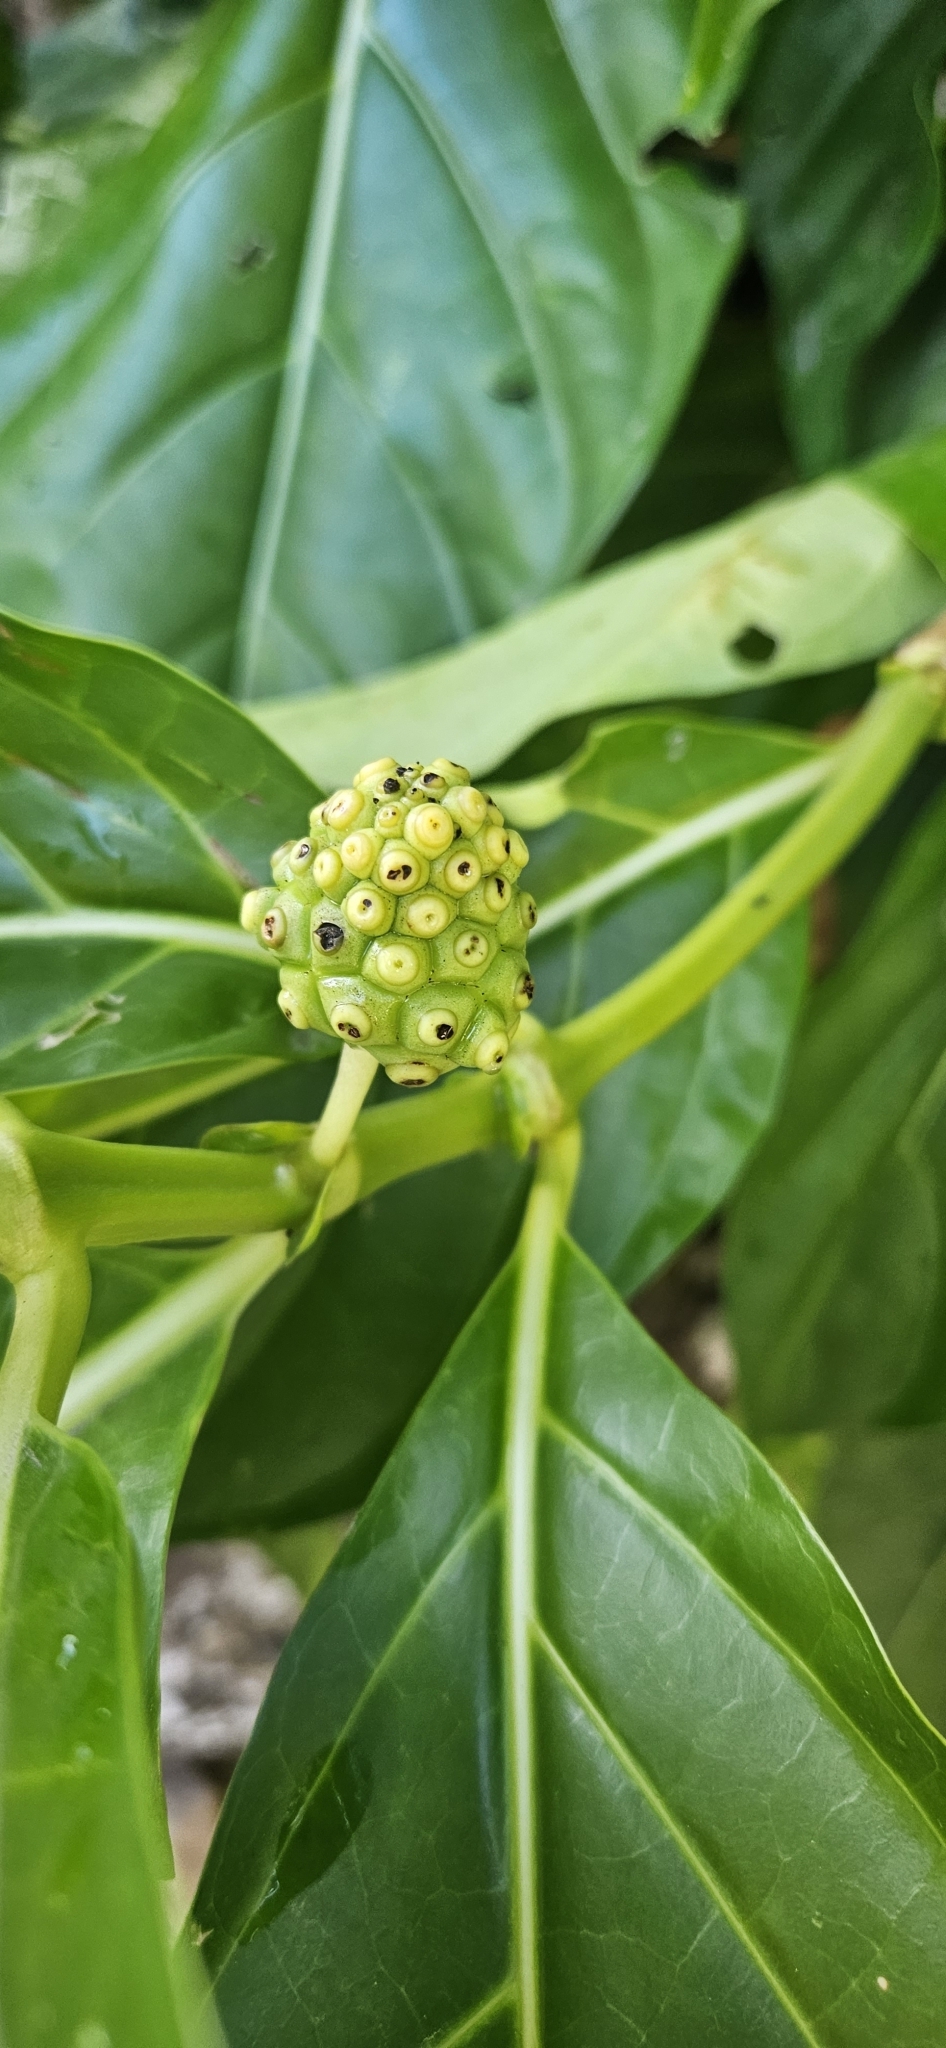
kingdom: Plantae
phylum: Tracheophyta
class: Magnoliopsida
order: Gentianales
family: Rubiaceae
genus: Morinda
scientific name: Morinda citrifolia
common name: Indian-mulberry
